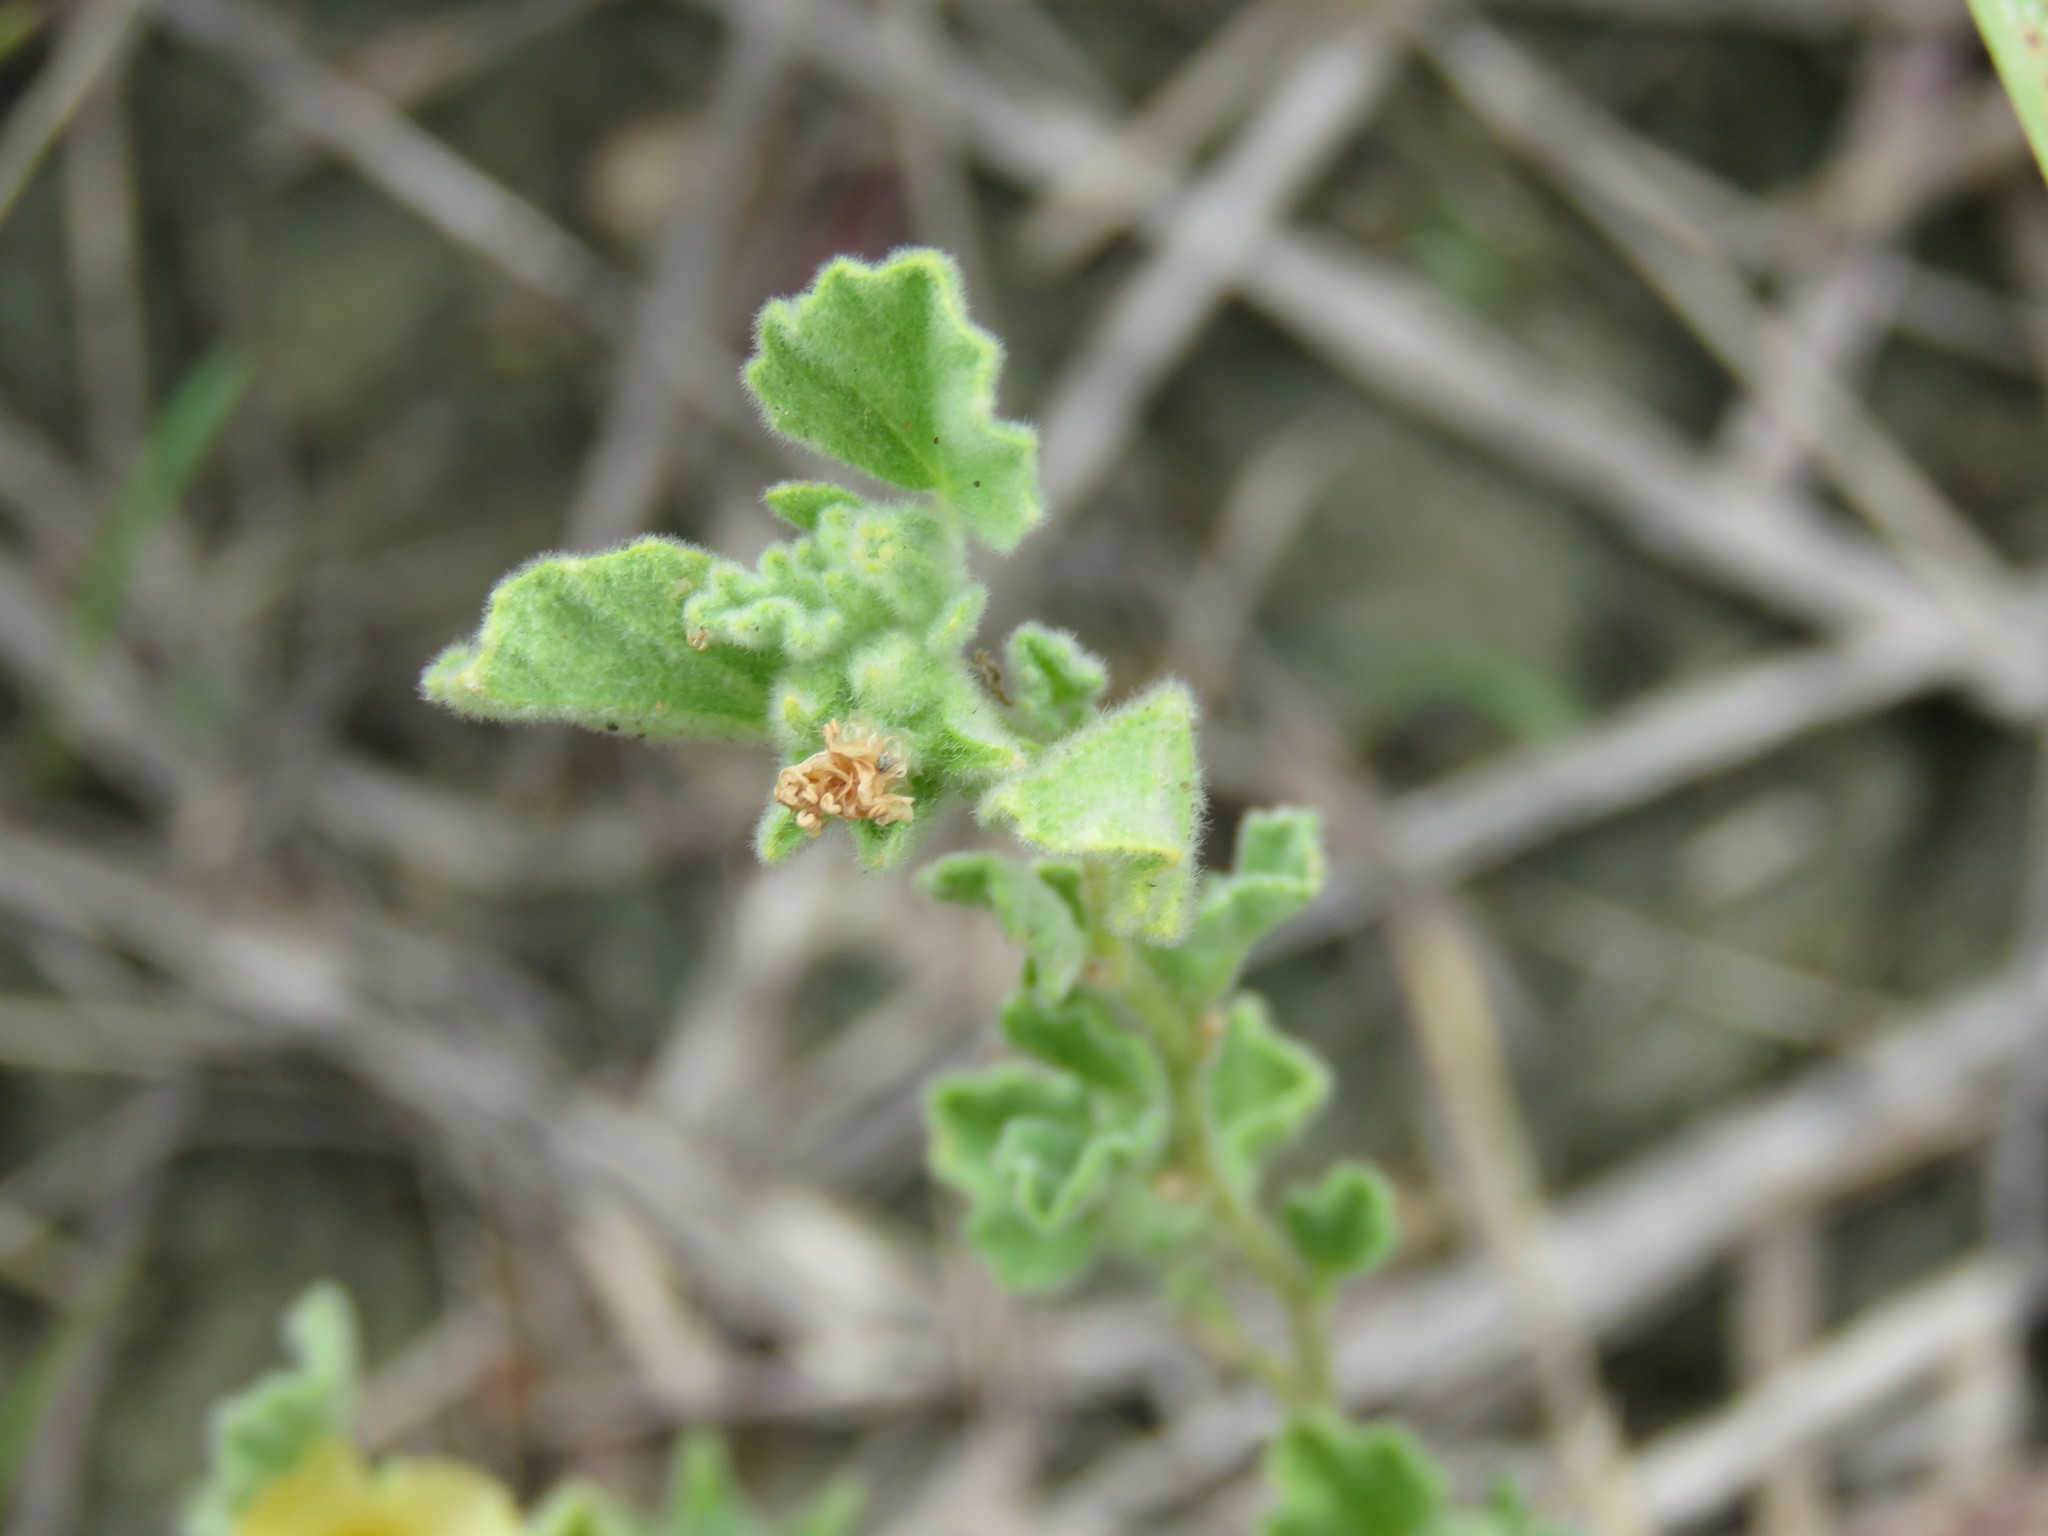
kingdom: Plantae
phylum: Tracheophyta
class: Magnoliopsida
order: Malvales
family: Malvaceae
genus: Billieturnera
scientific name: Billieturnera helleri
